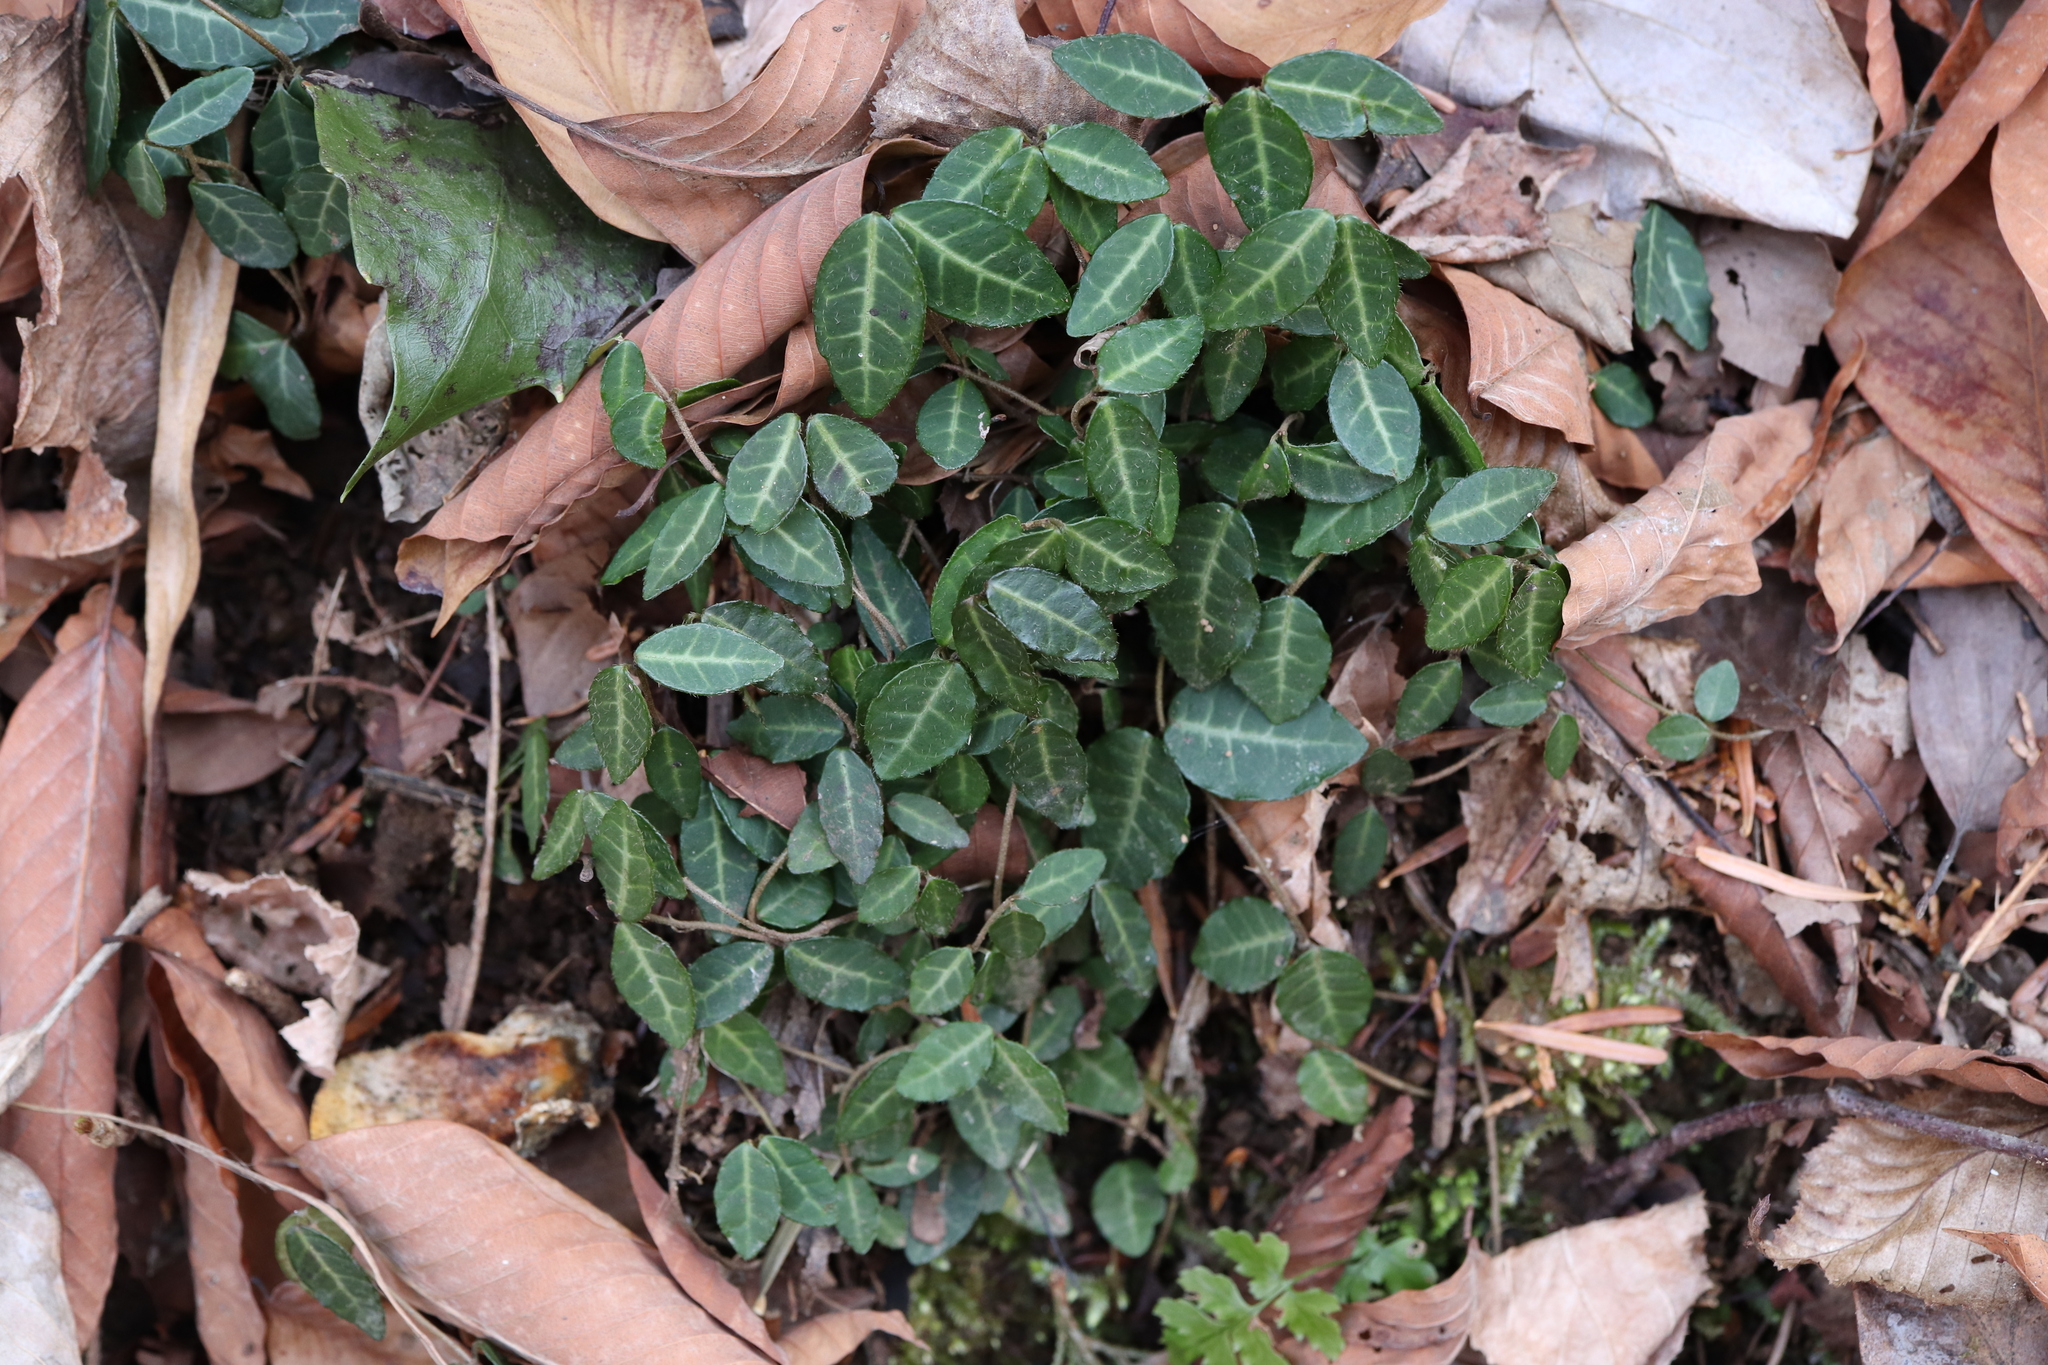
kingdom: Plantae
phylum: Tracheophyta
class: Magnoliopsida
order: Gentianales
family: Apocynaceae
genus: Trachelospermum
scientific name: Trachelospermum asiaticum
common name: Asiatic jasmine
